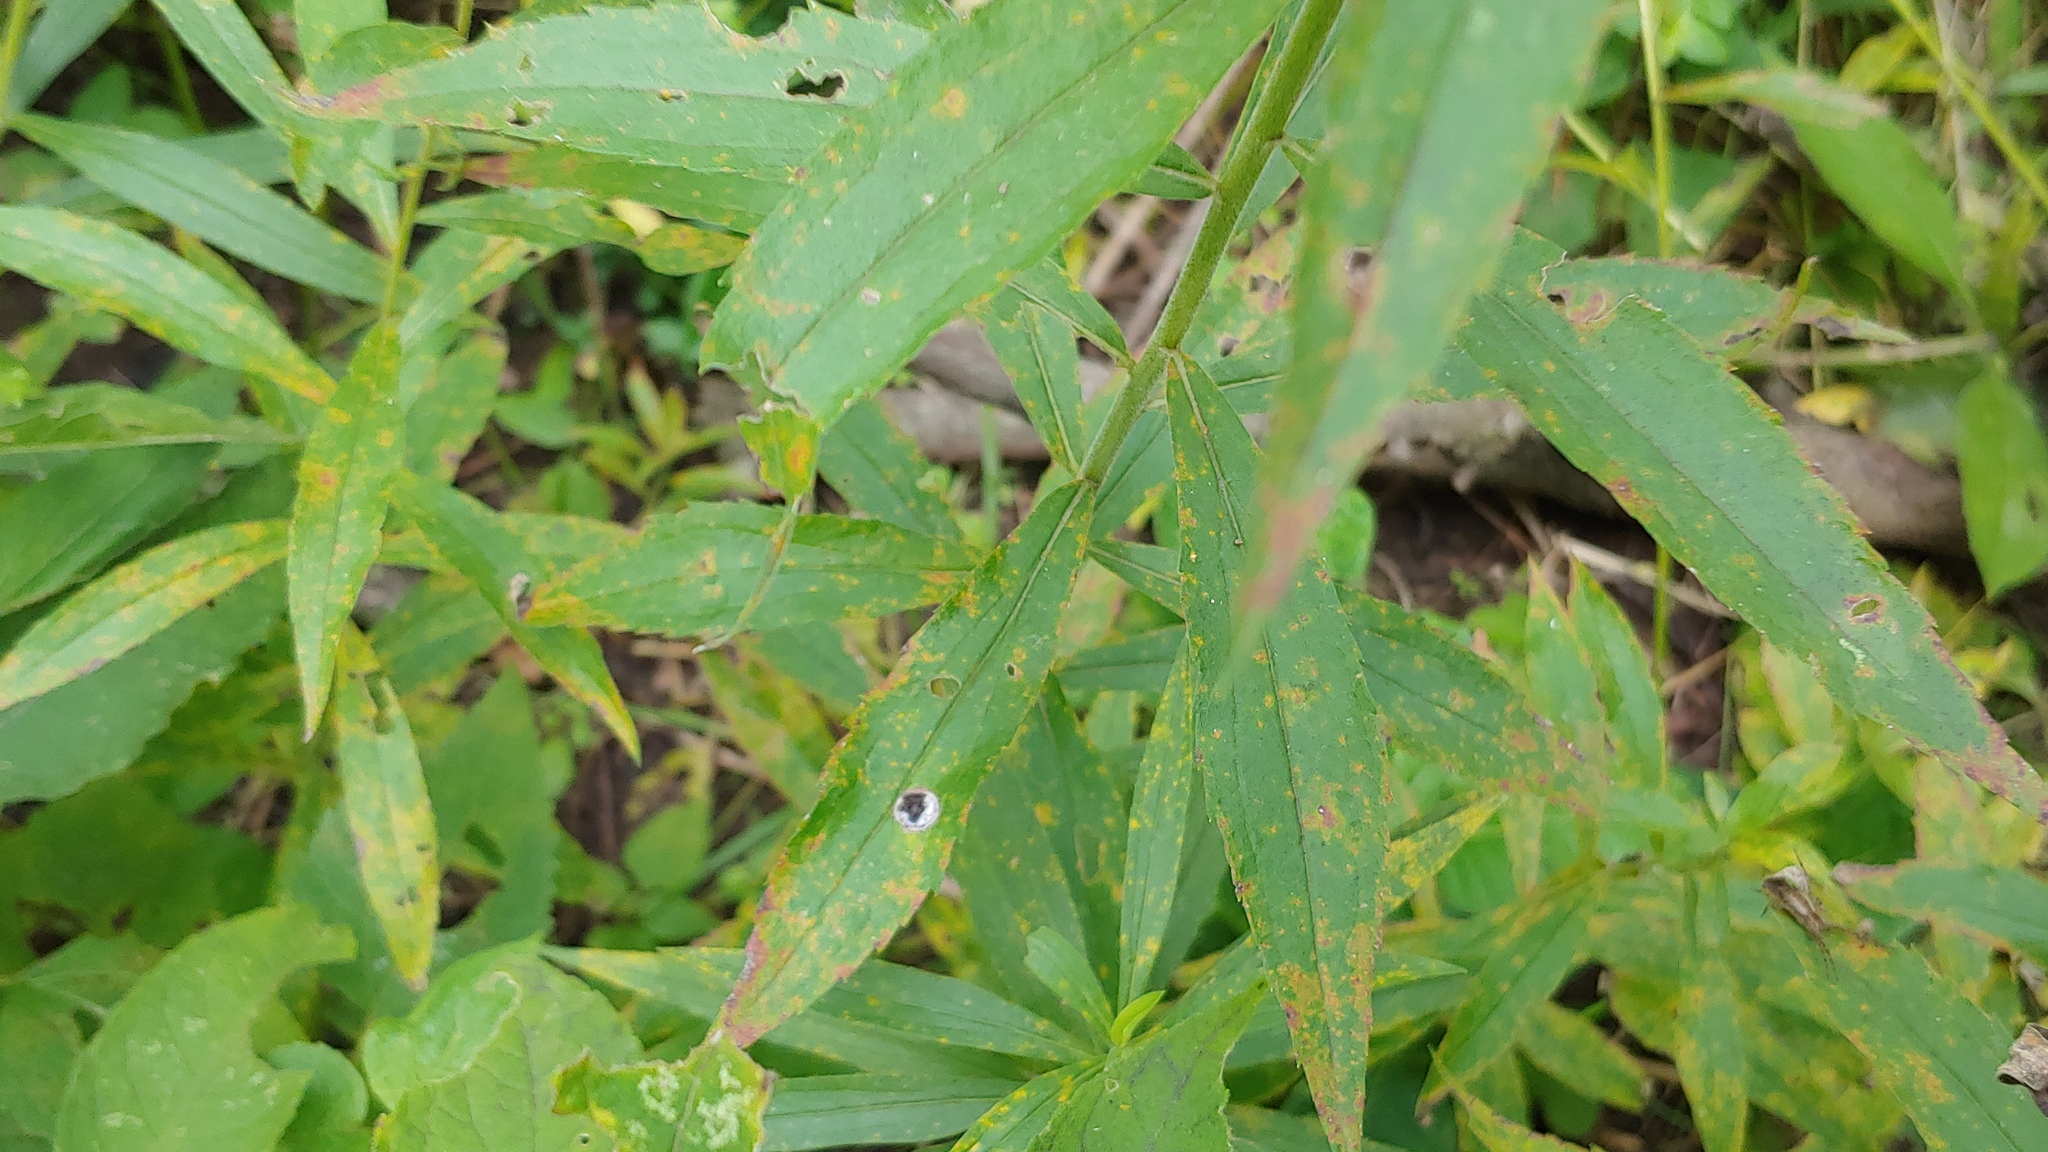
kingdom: Fungi
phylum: Basidiomycota
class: Pucciniomycetes
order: Pucciniales
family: Coleosporiaceae
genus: Coleosporium
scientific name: Coleosporium asterum
